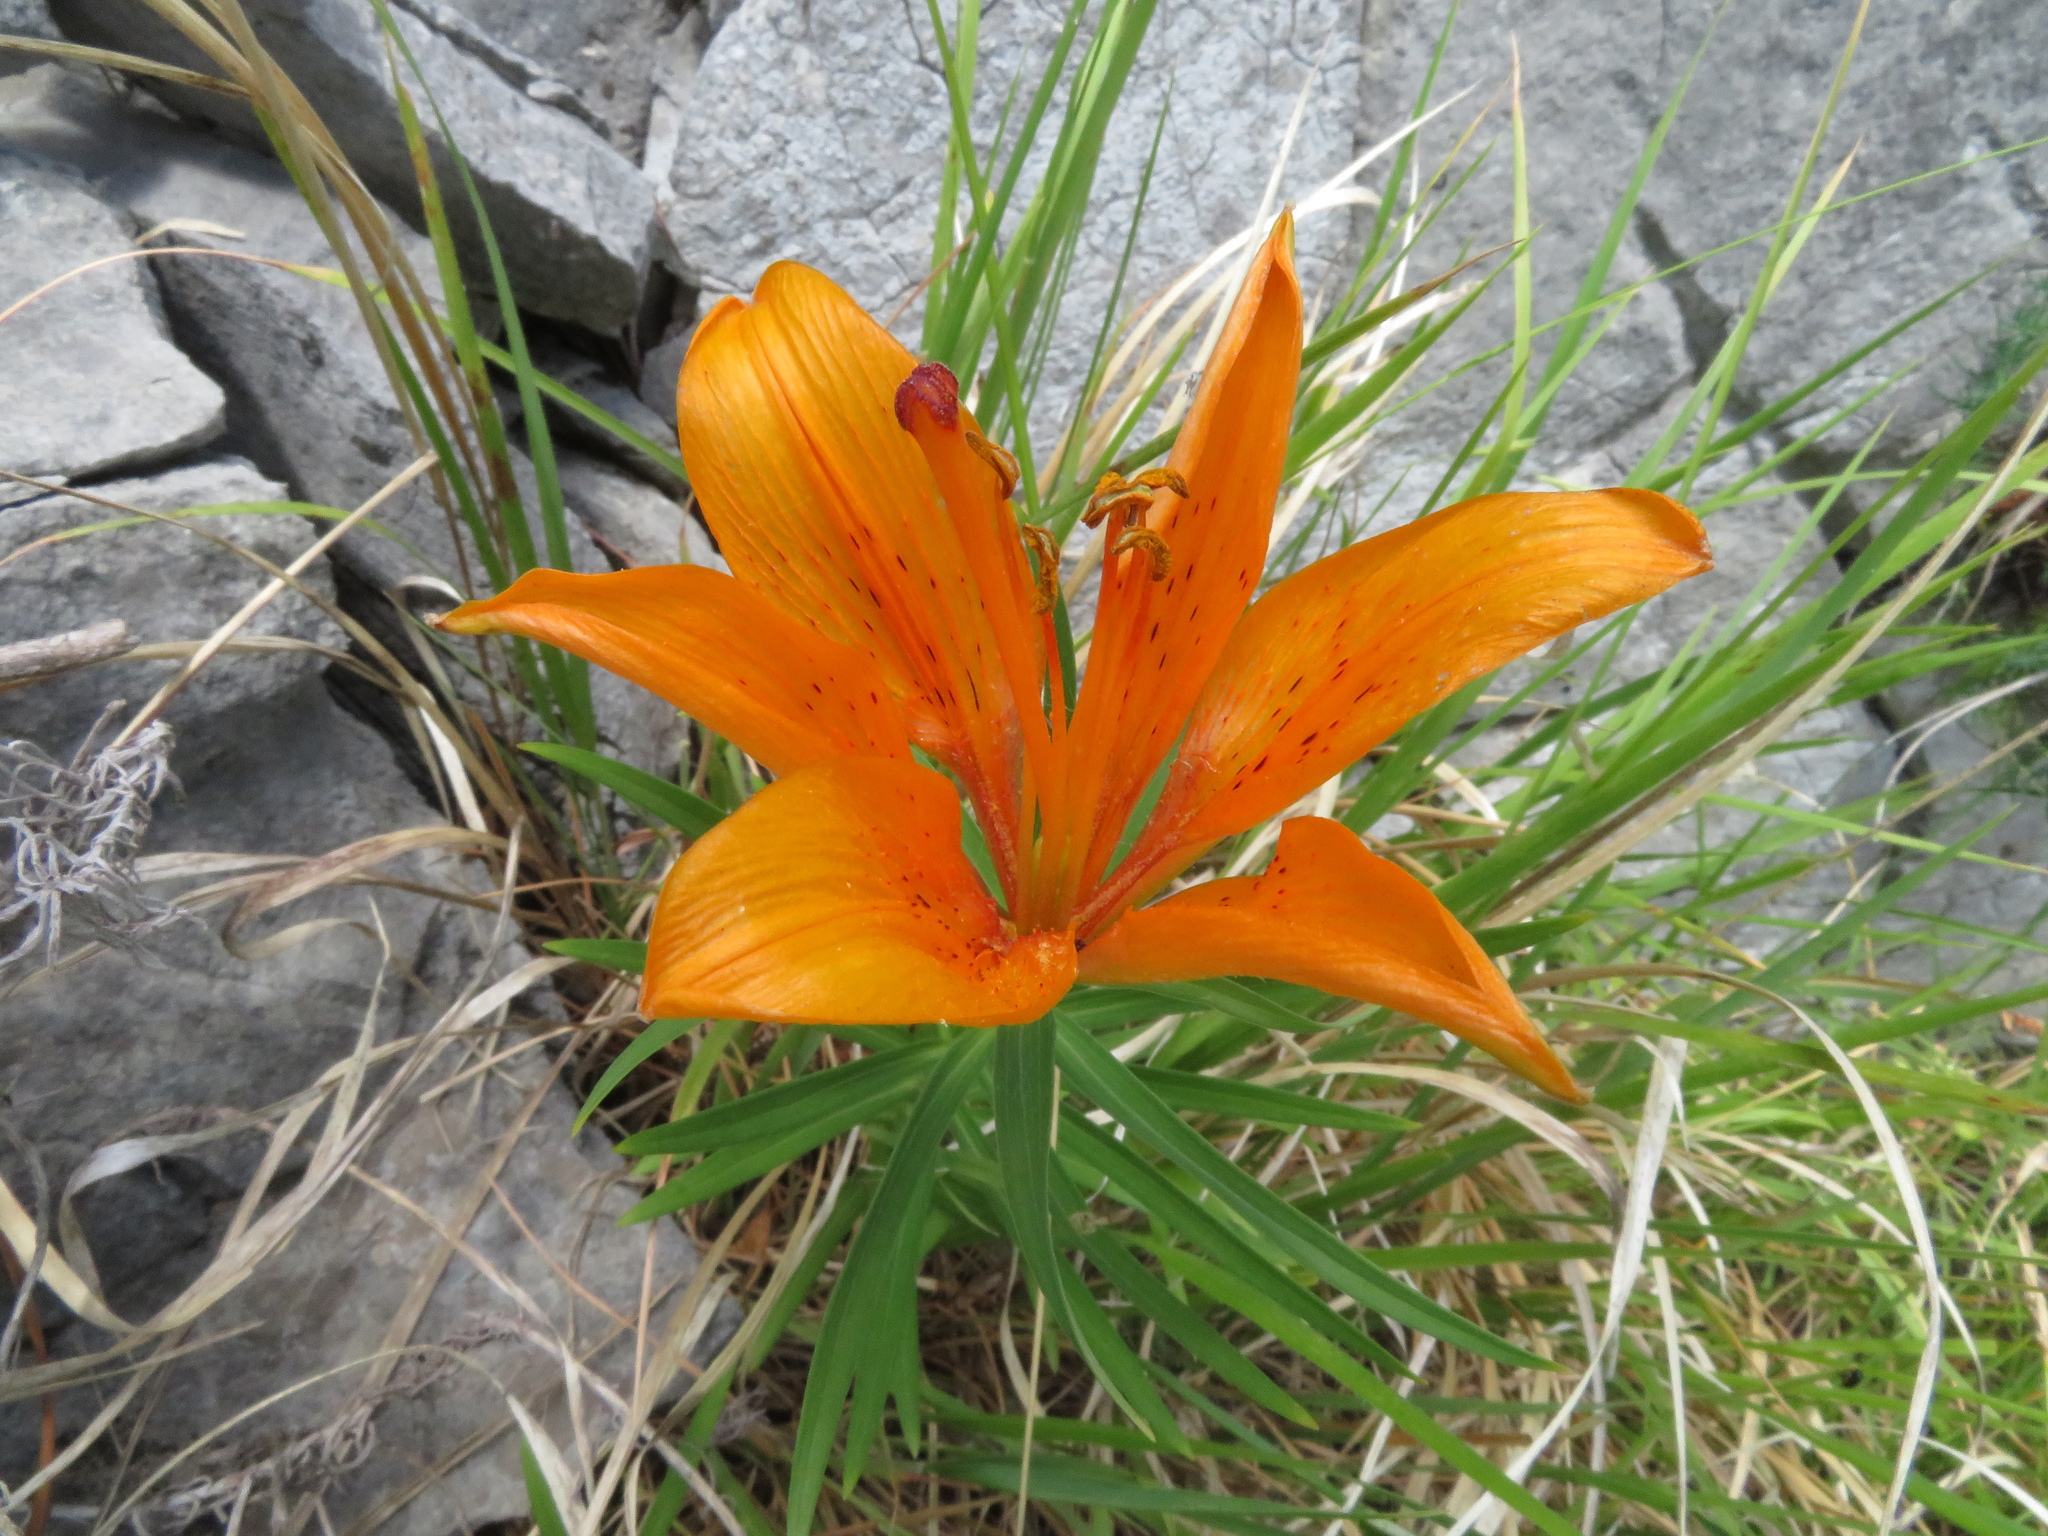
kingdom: Plantae
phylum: Tracheophyta
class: Liliopsida
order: Liliales
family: Liliaceae
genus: Lilium
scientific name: Lilium bulbiferum
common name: Orange lily
